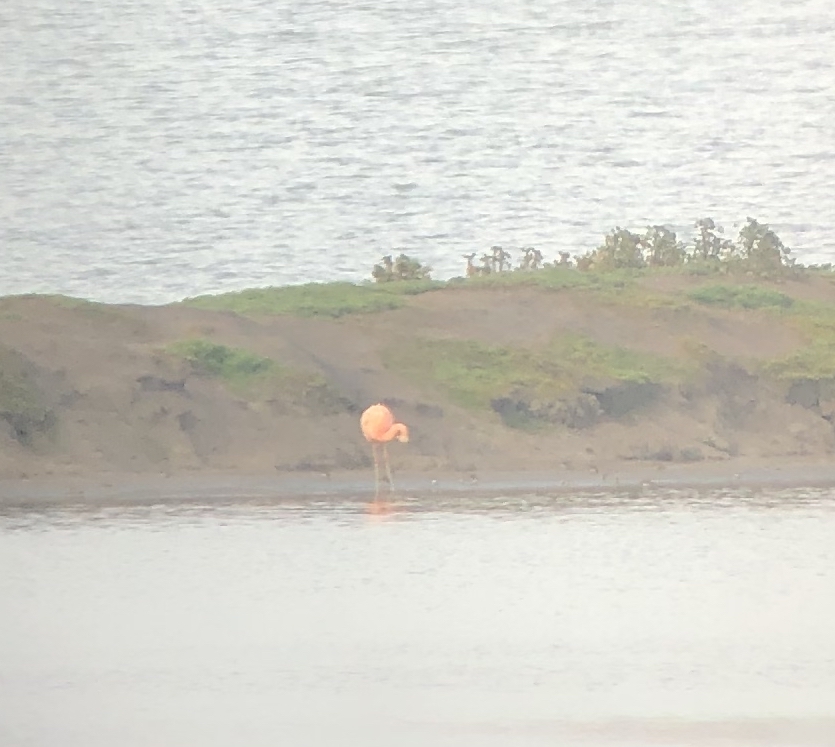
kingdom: Animalia
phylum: Chordata
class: Aves
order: Phoenicopteriformes
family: Phoenicopteridae
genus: Phoenicopterus
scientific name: Phoenicopterus chilensis
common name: Chilean flamingo
